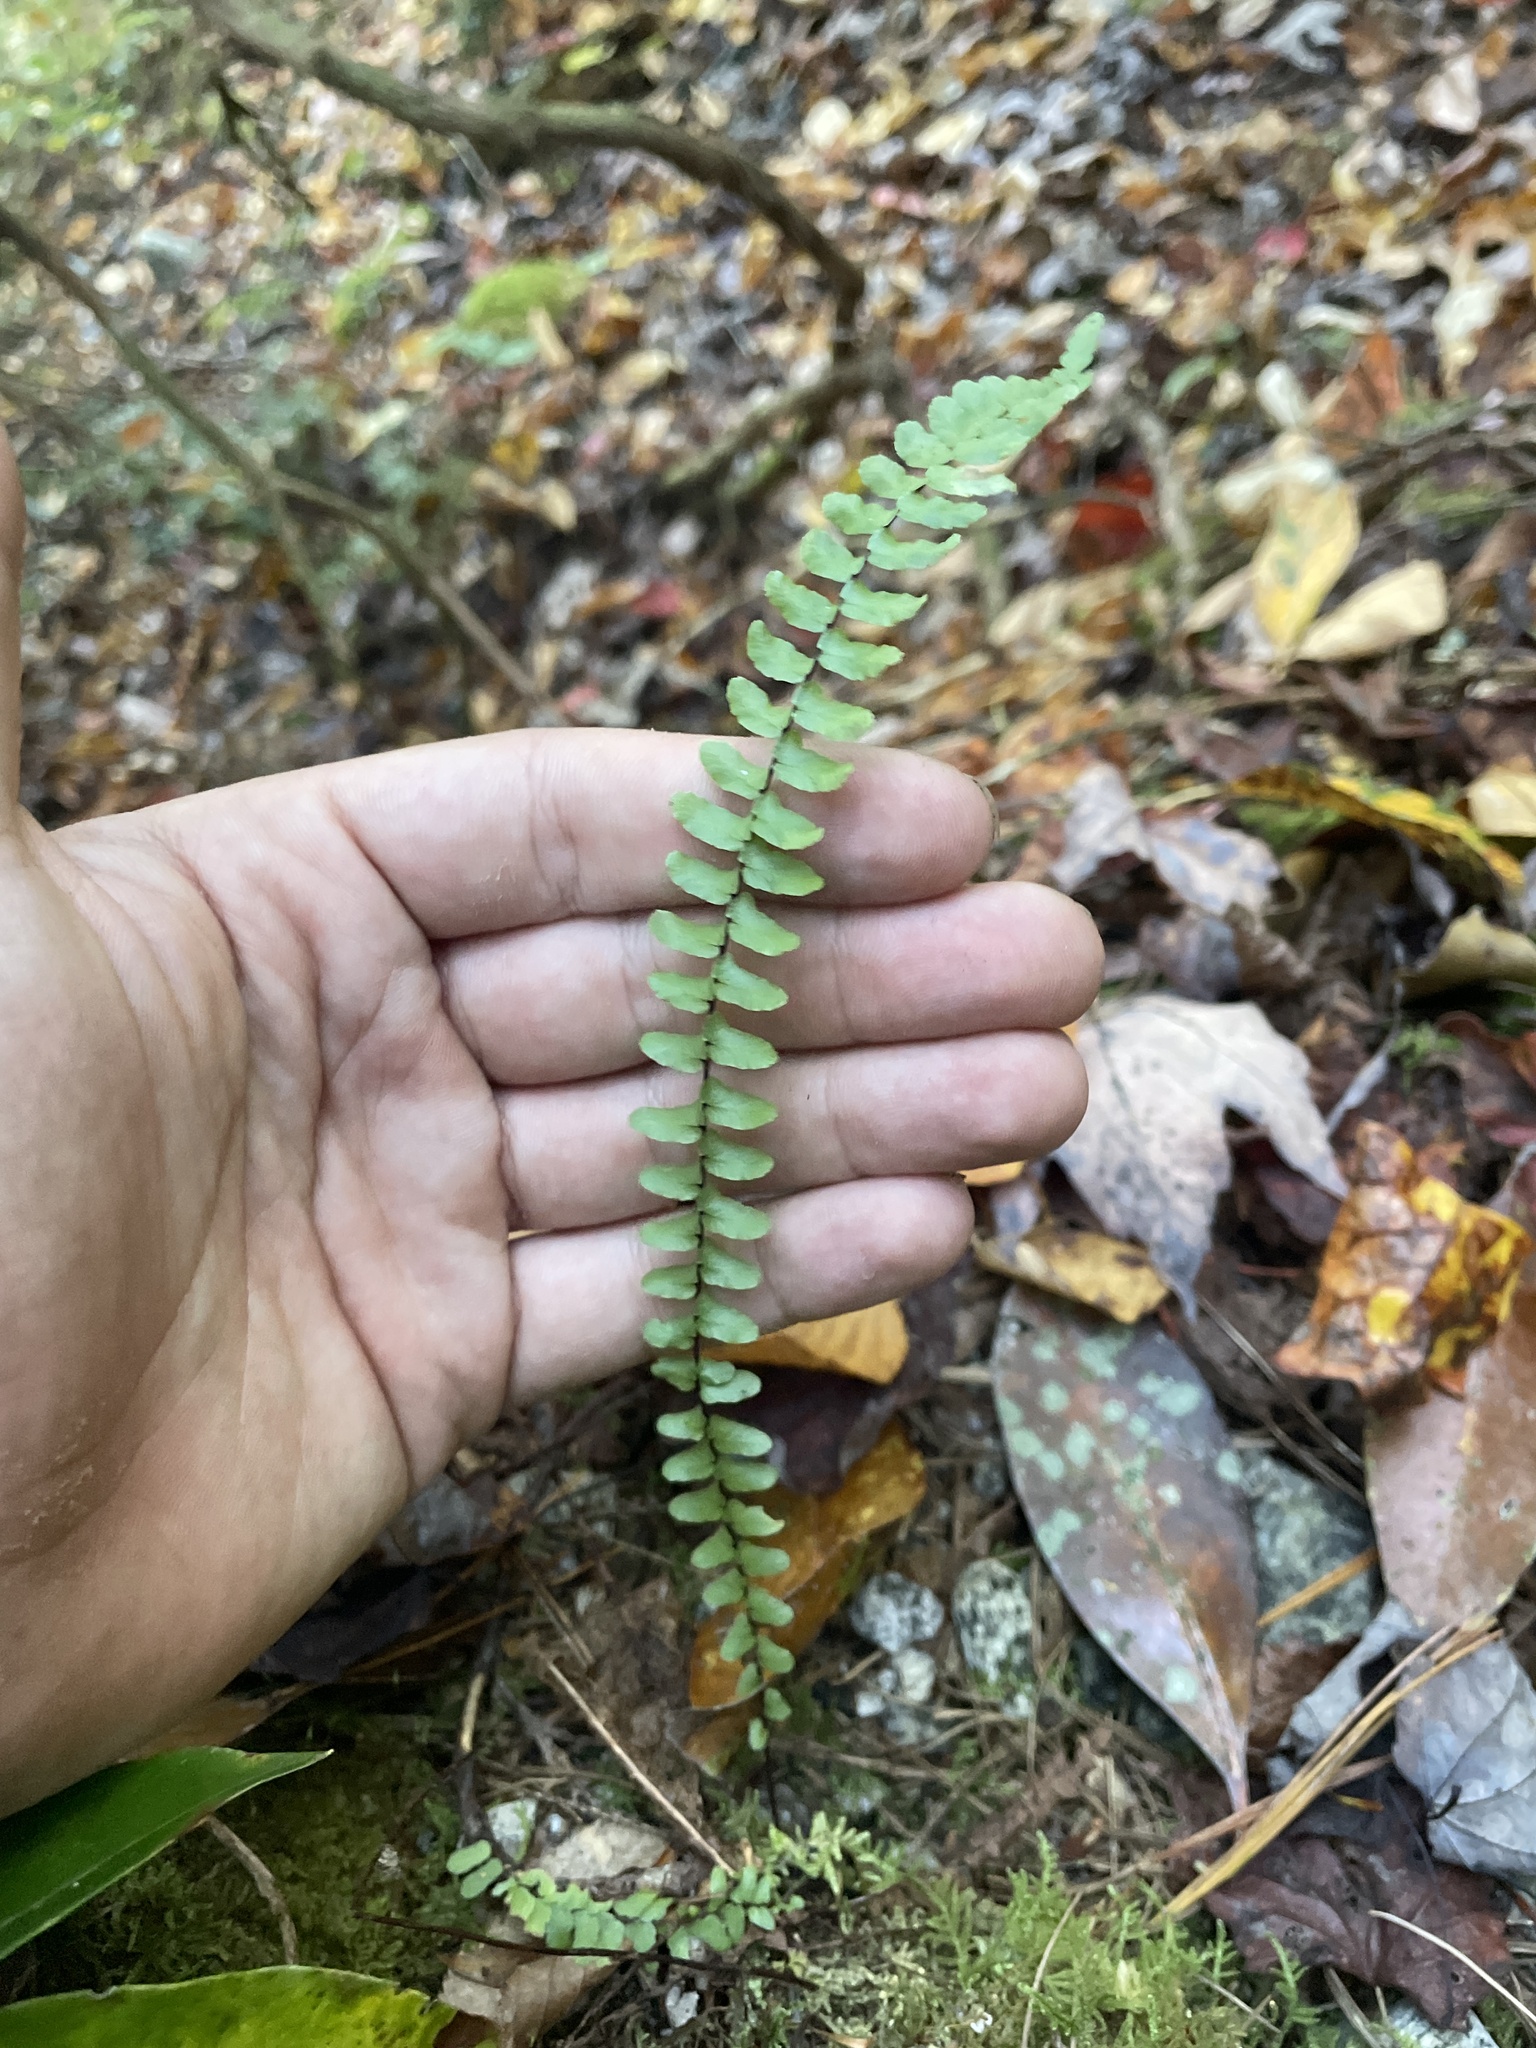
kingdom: Plantae
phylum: Tracheophyta
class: Polypodiopsida
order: Polypodiales
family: Aspleniaceae
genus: Asplenium
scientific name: Asplenium platyneuron
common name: Ebony spleenwort
